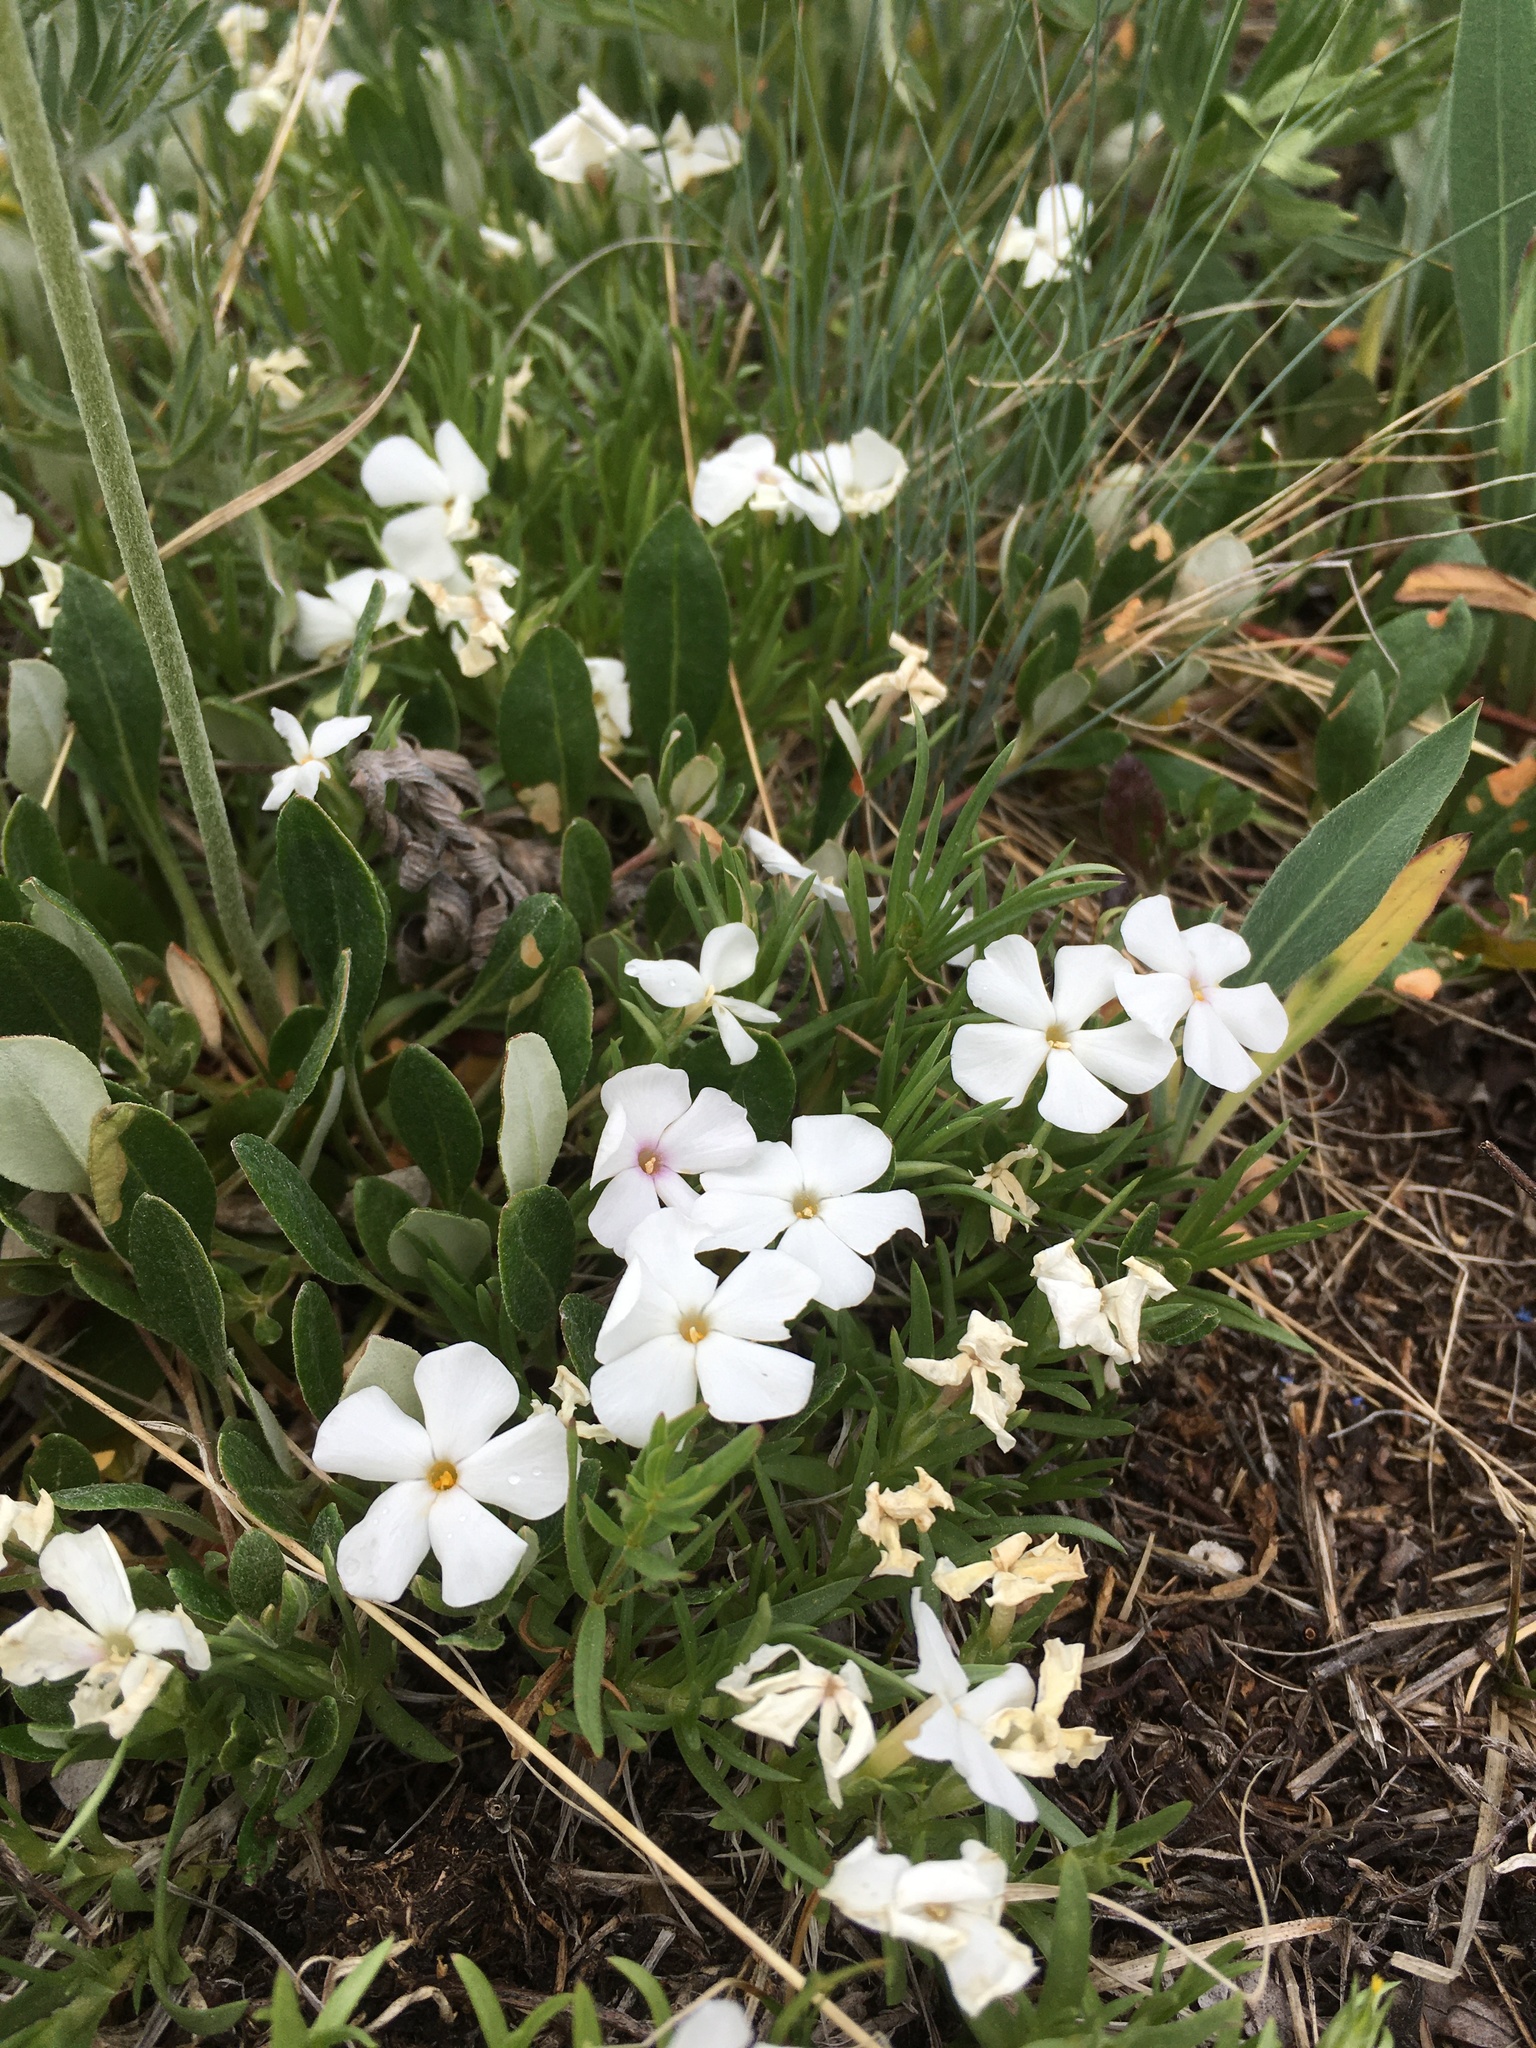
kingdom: Plantae
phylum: Tracheophyta
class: Magnoliopsida
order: Ericales
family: Polemoniaceae
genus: Phlox
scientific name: Phlox multiflora
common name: Rocky mountain phlox
